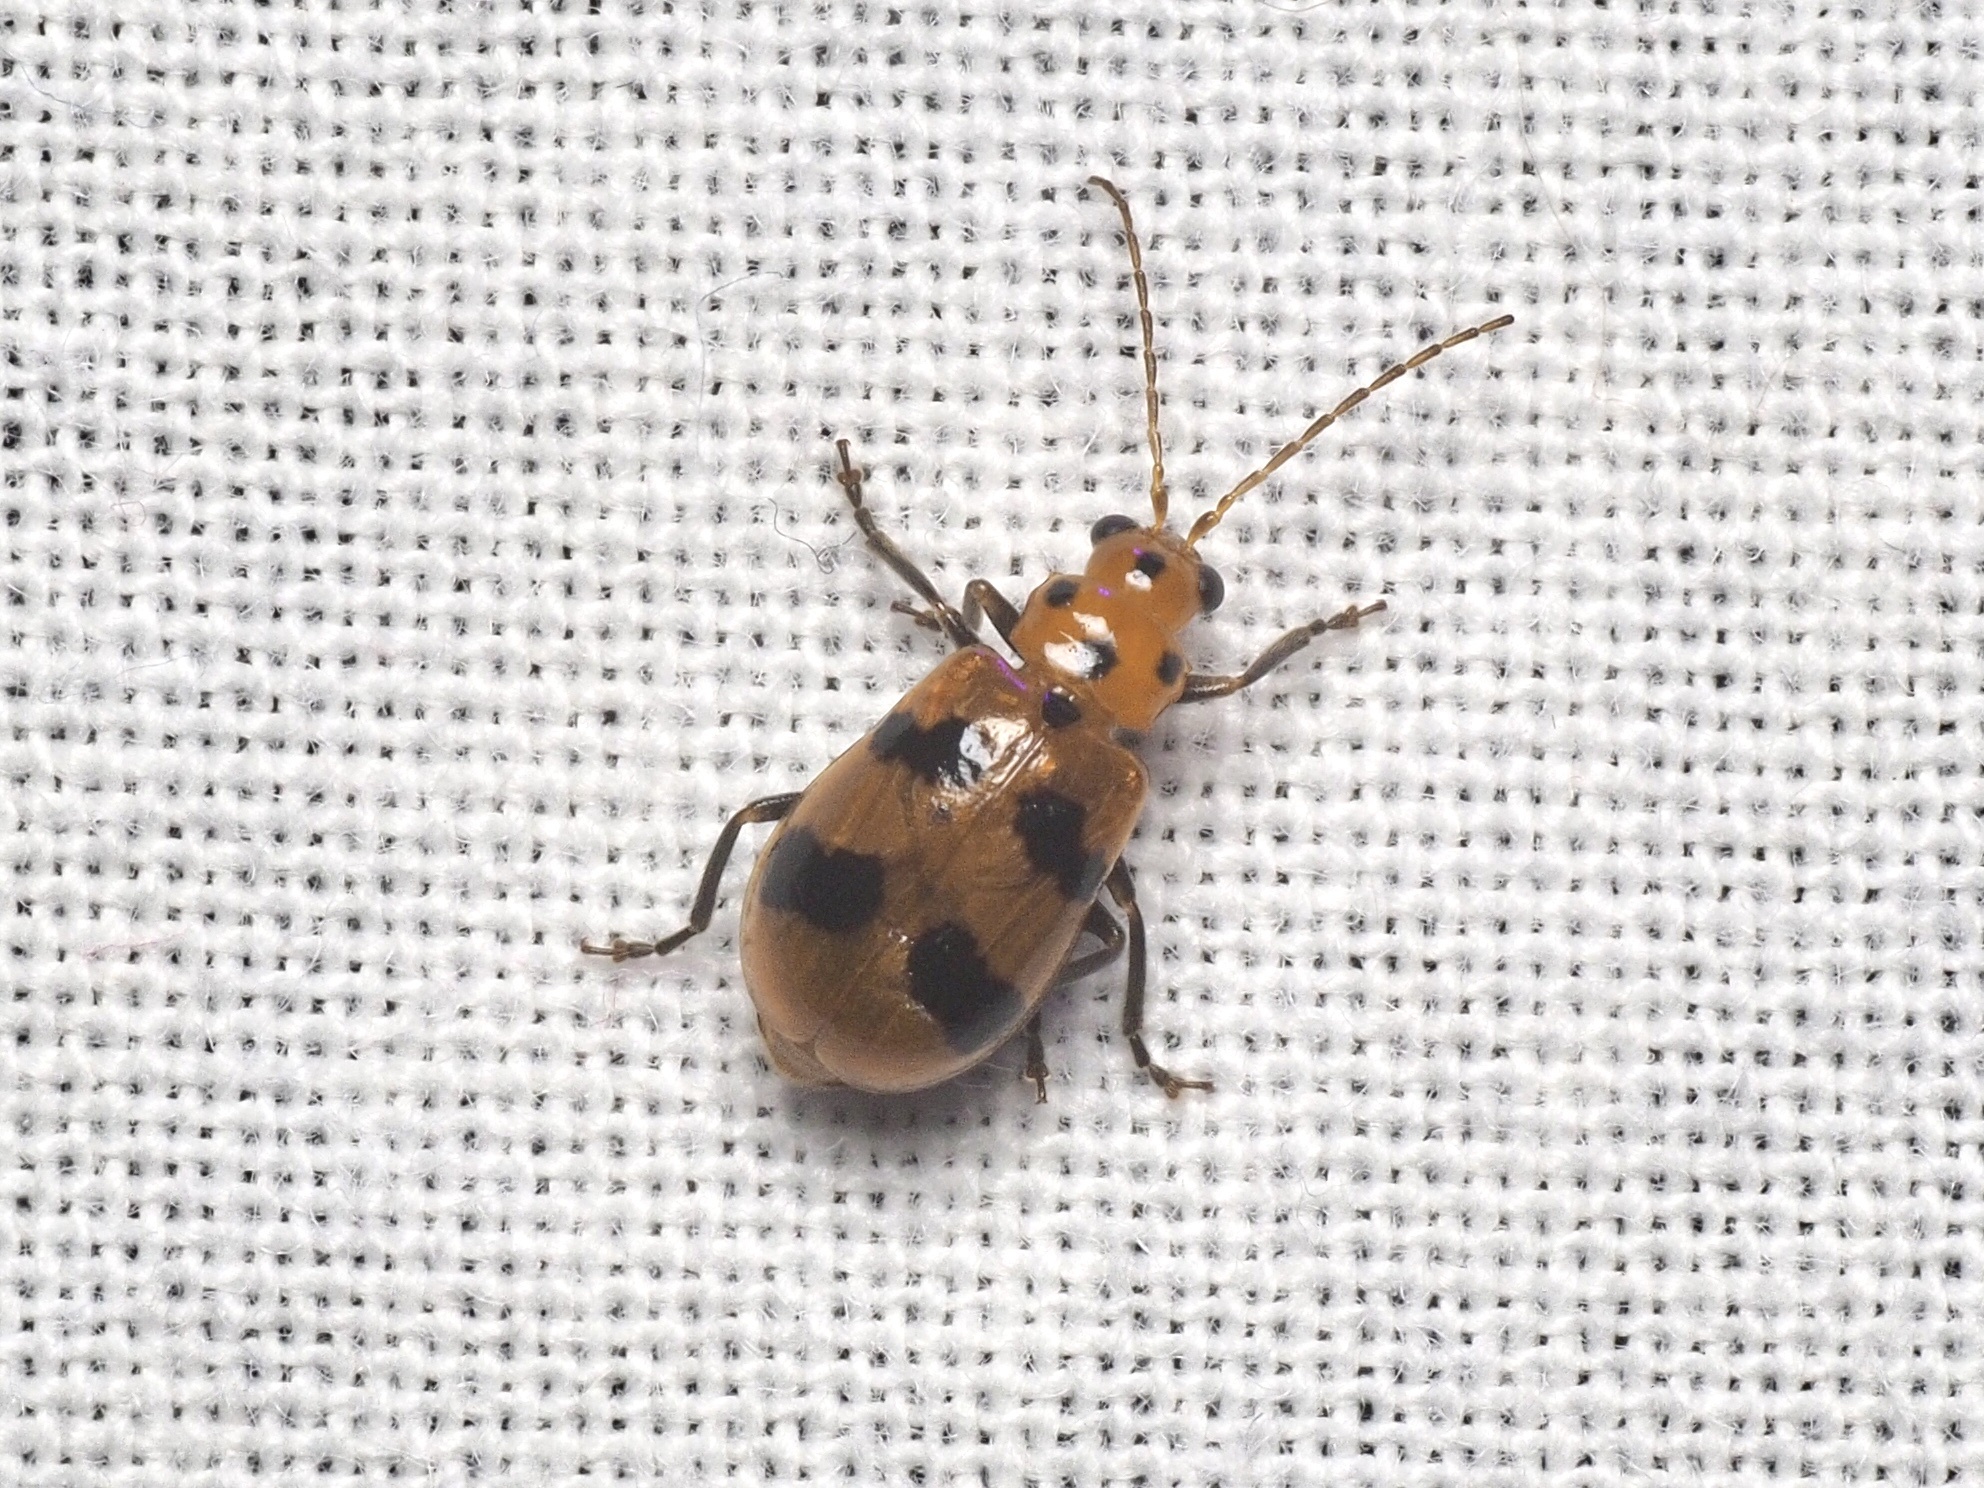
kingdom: Animalia
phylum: Arthropoda
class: Insecta
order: Coleoptera
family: Chrysomelidae
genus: Leptaulaca
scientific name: Leptaulaca
